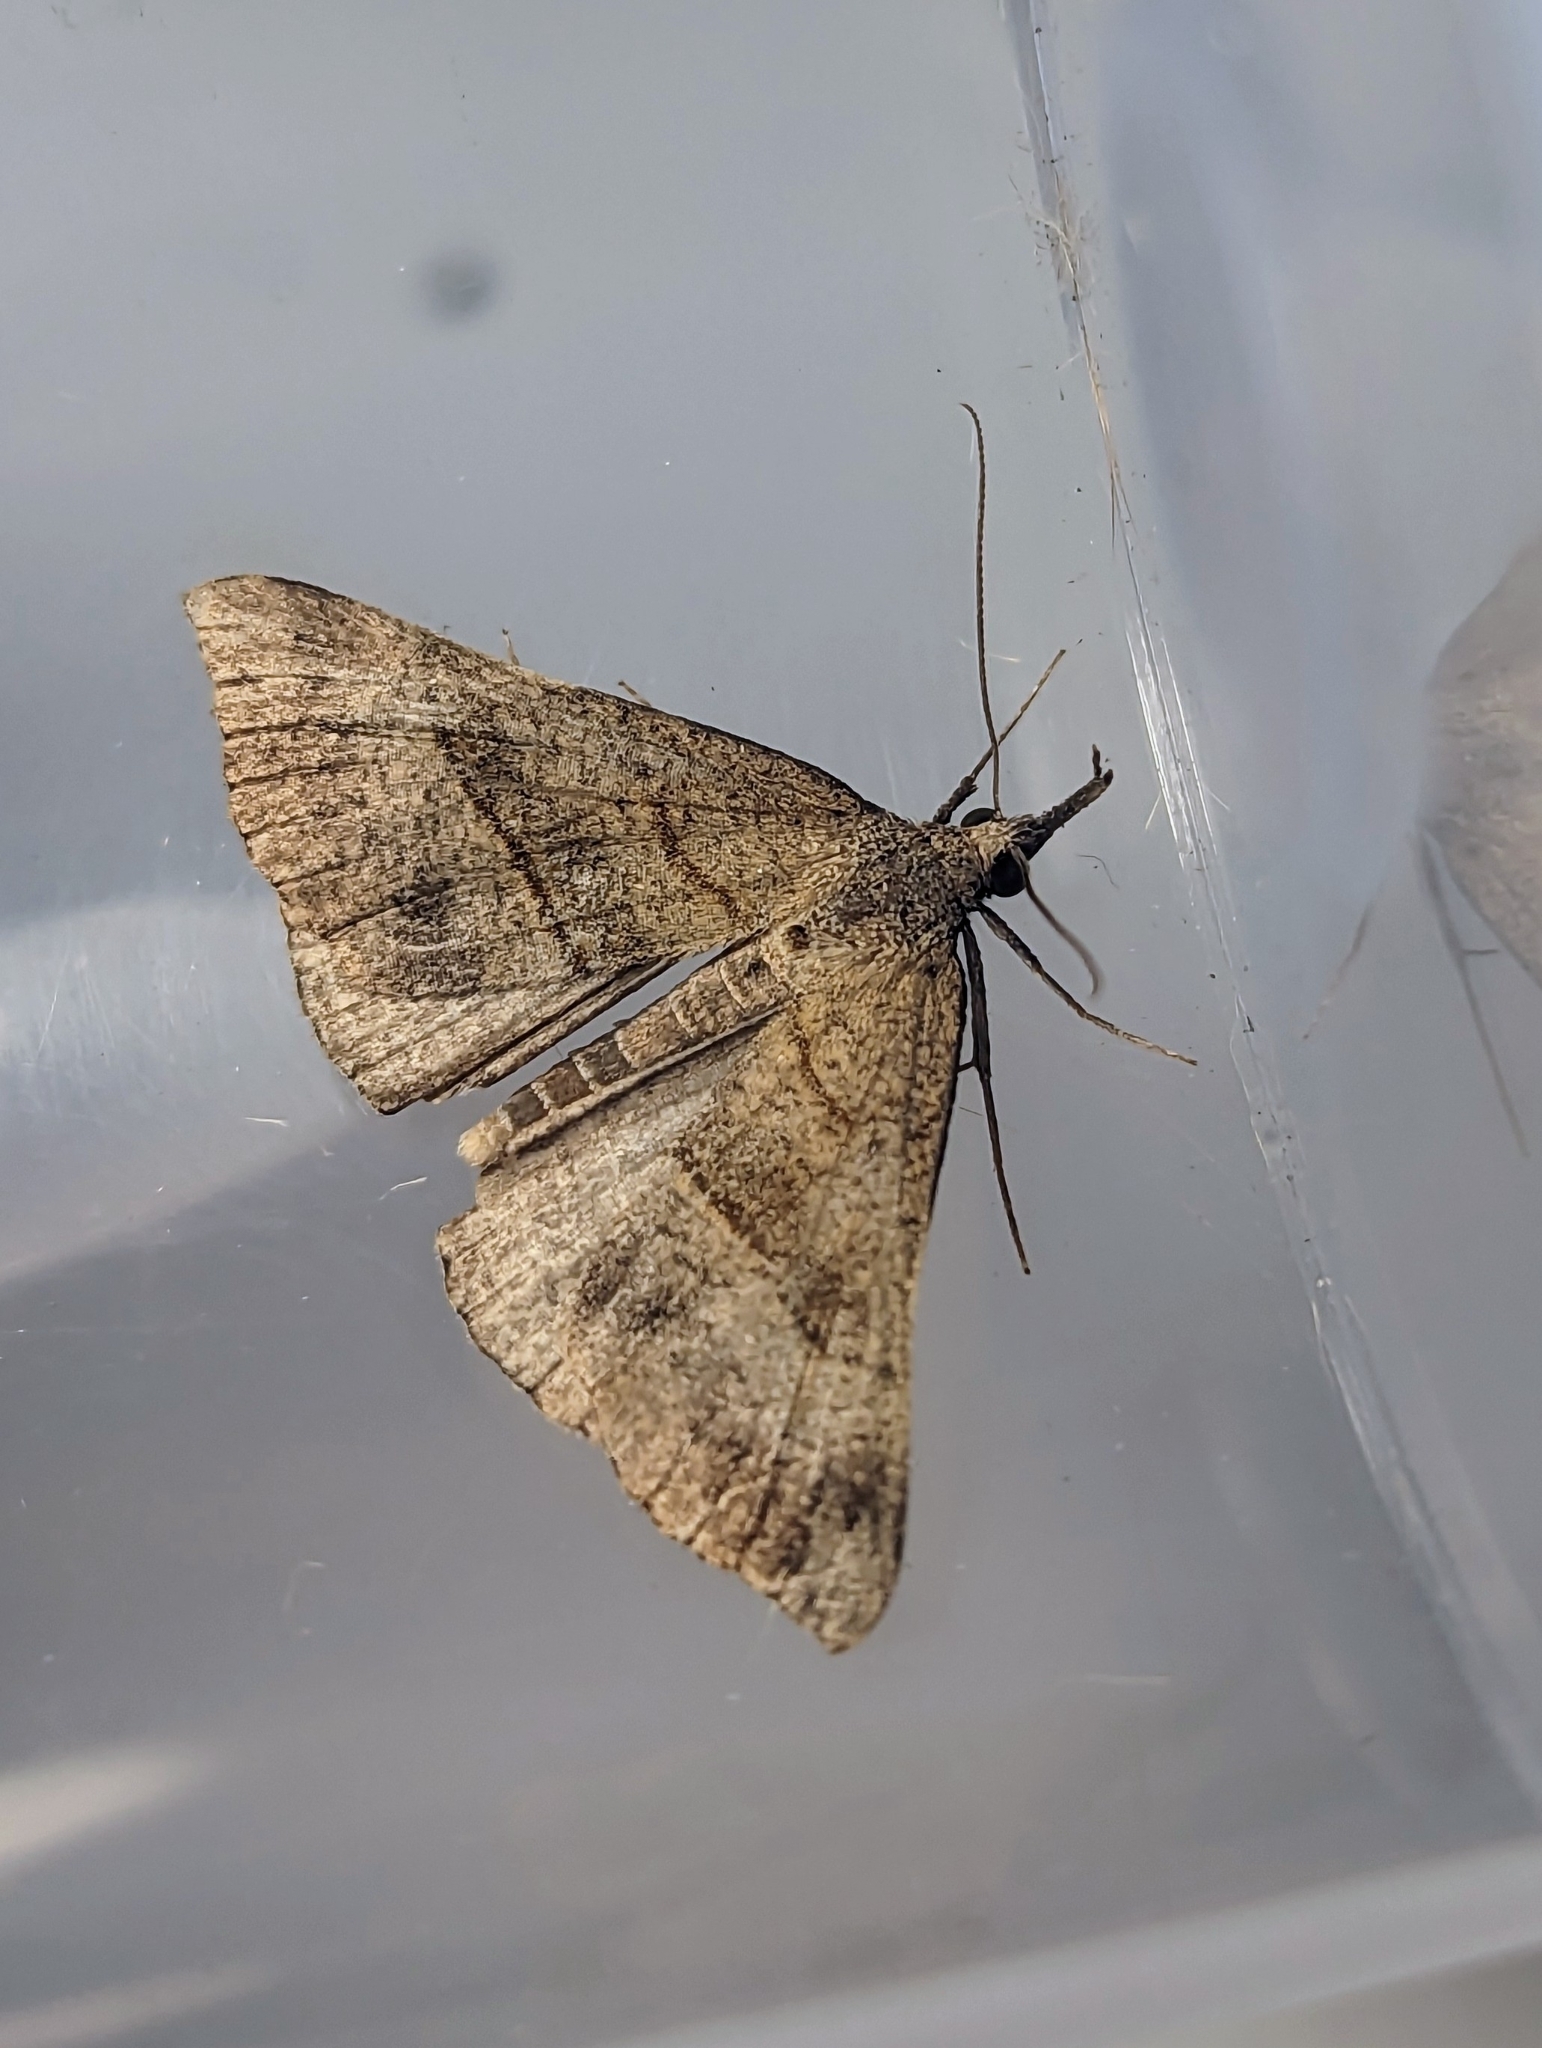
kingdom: Animalia
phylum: Arthropoda
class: Insecta
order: Lepidoptera
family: Erebidae
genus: Hypena
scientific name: Hypena proboscidalis
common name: Snout
